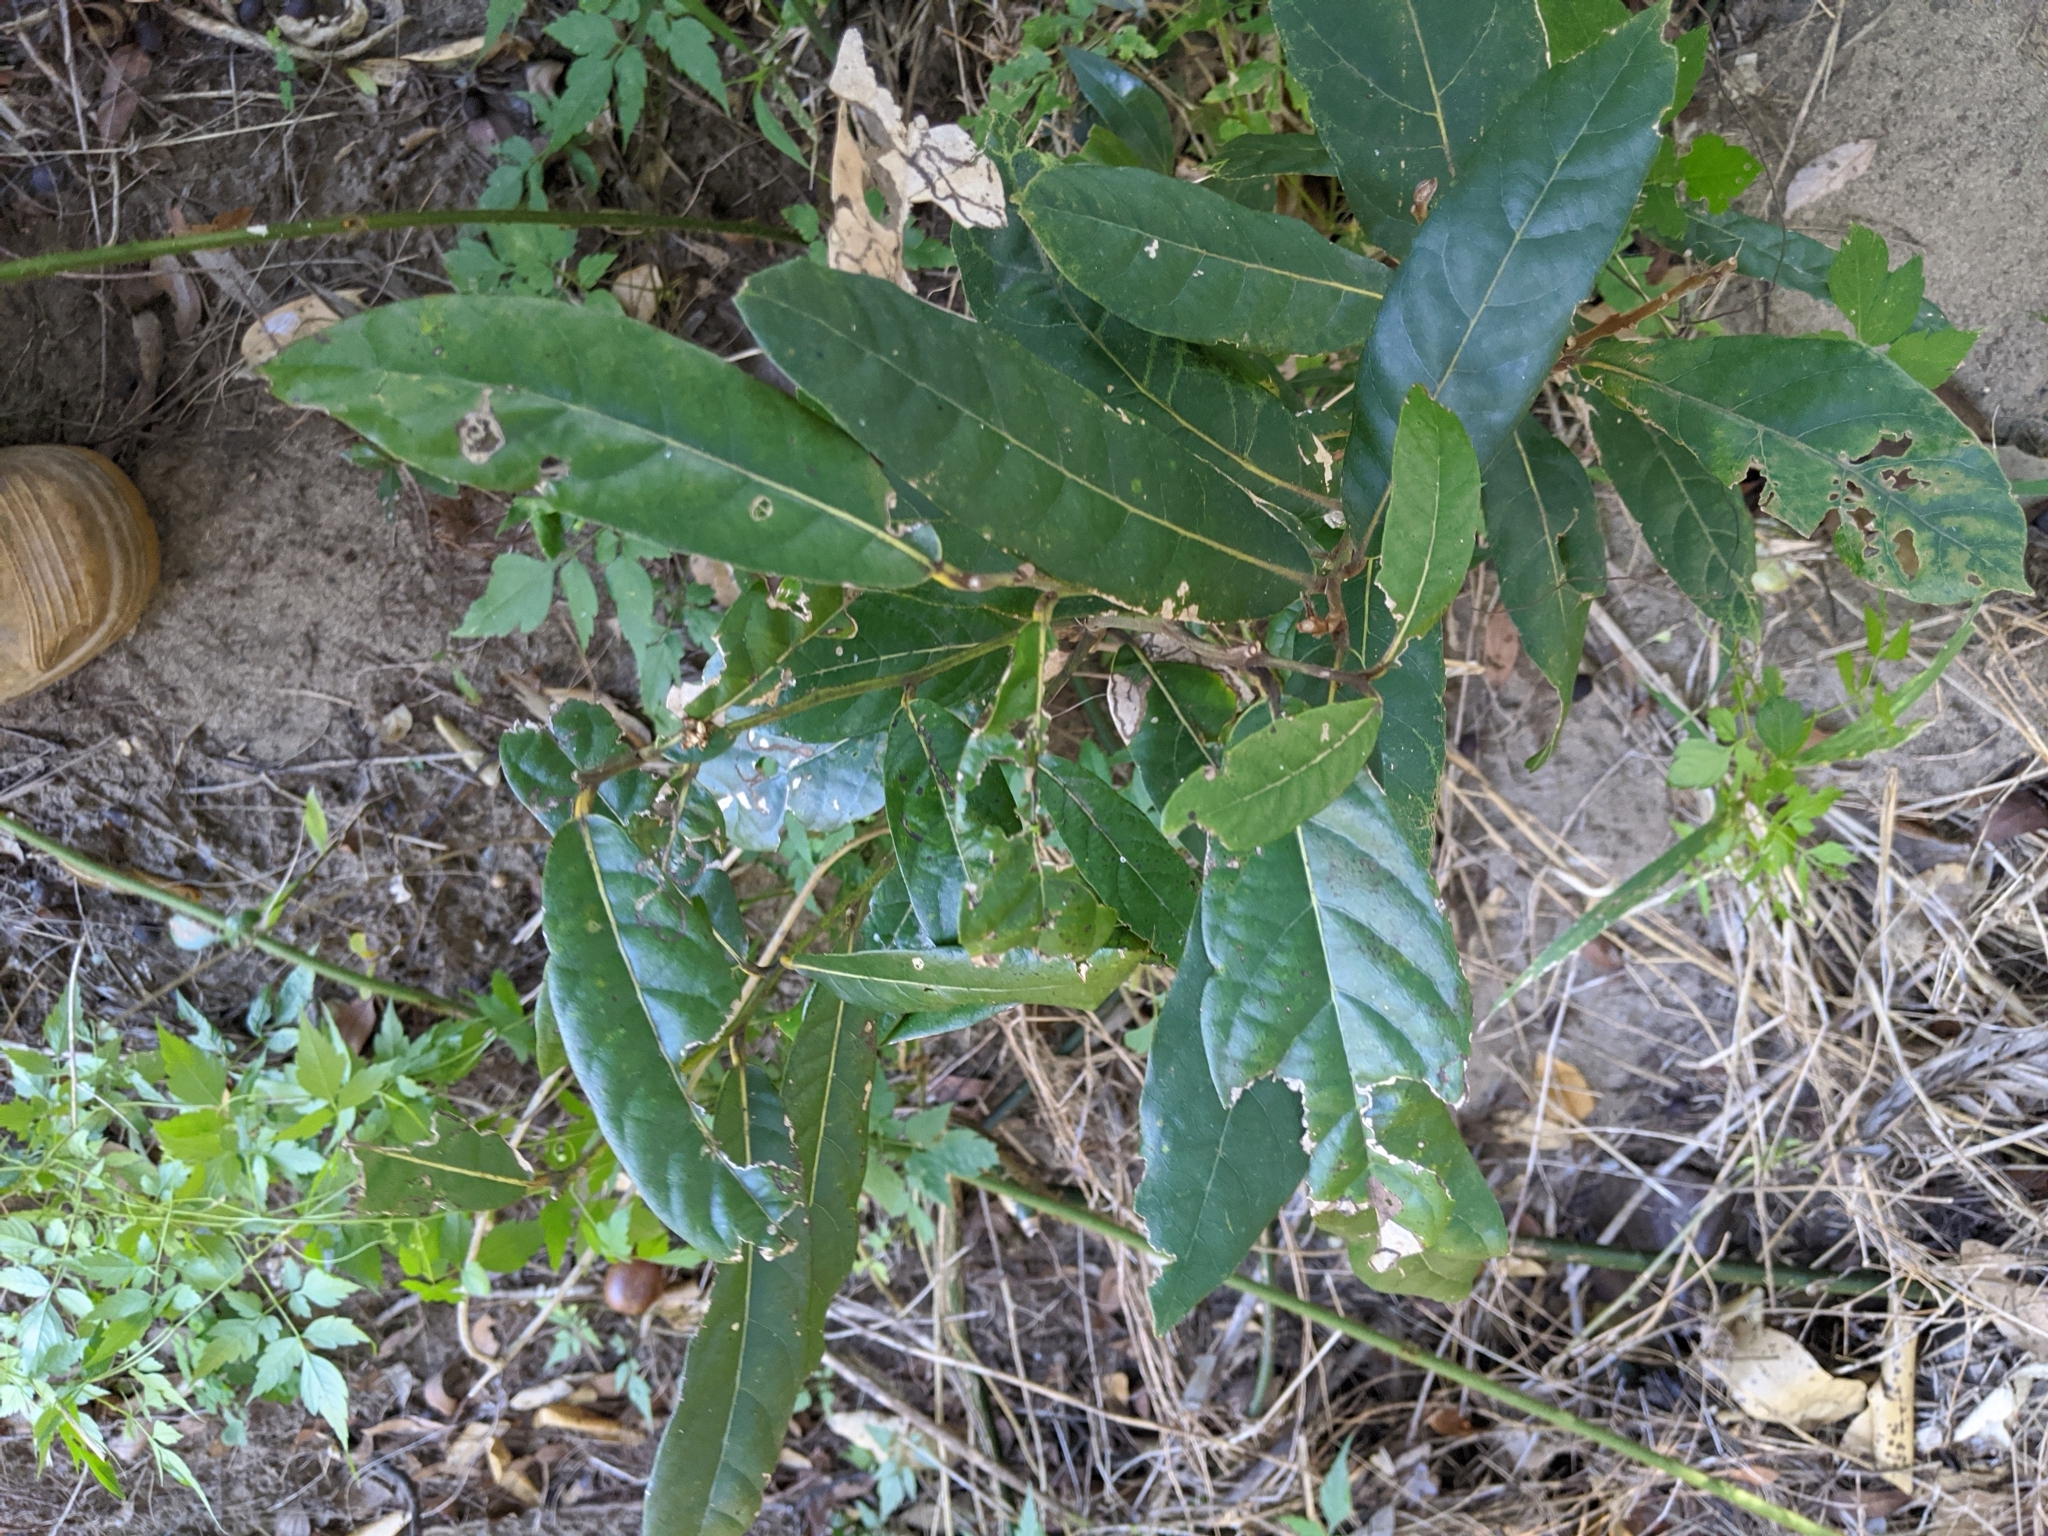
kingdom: Plantae
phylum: Tracheophyta
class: Magnoliopsida
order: Laurales
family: Lauraceae
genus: Cryptocarya
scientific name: Cryptocarya obovata
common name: Pepperberry-tree
